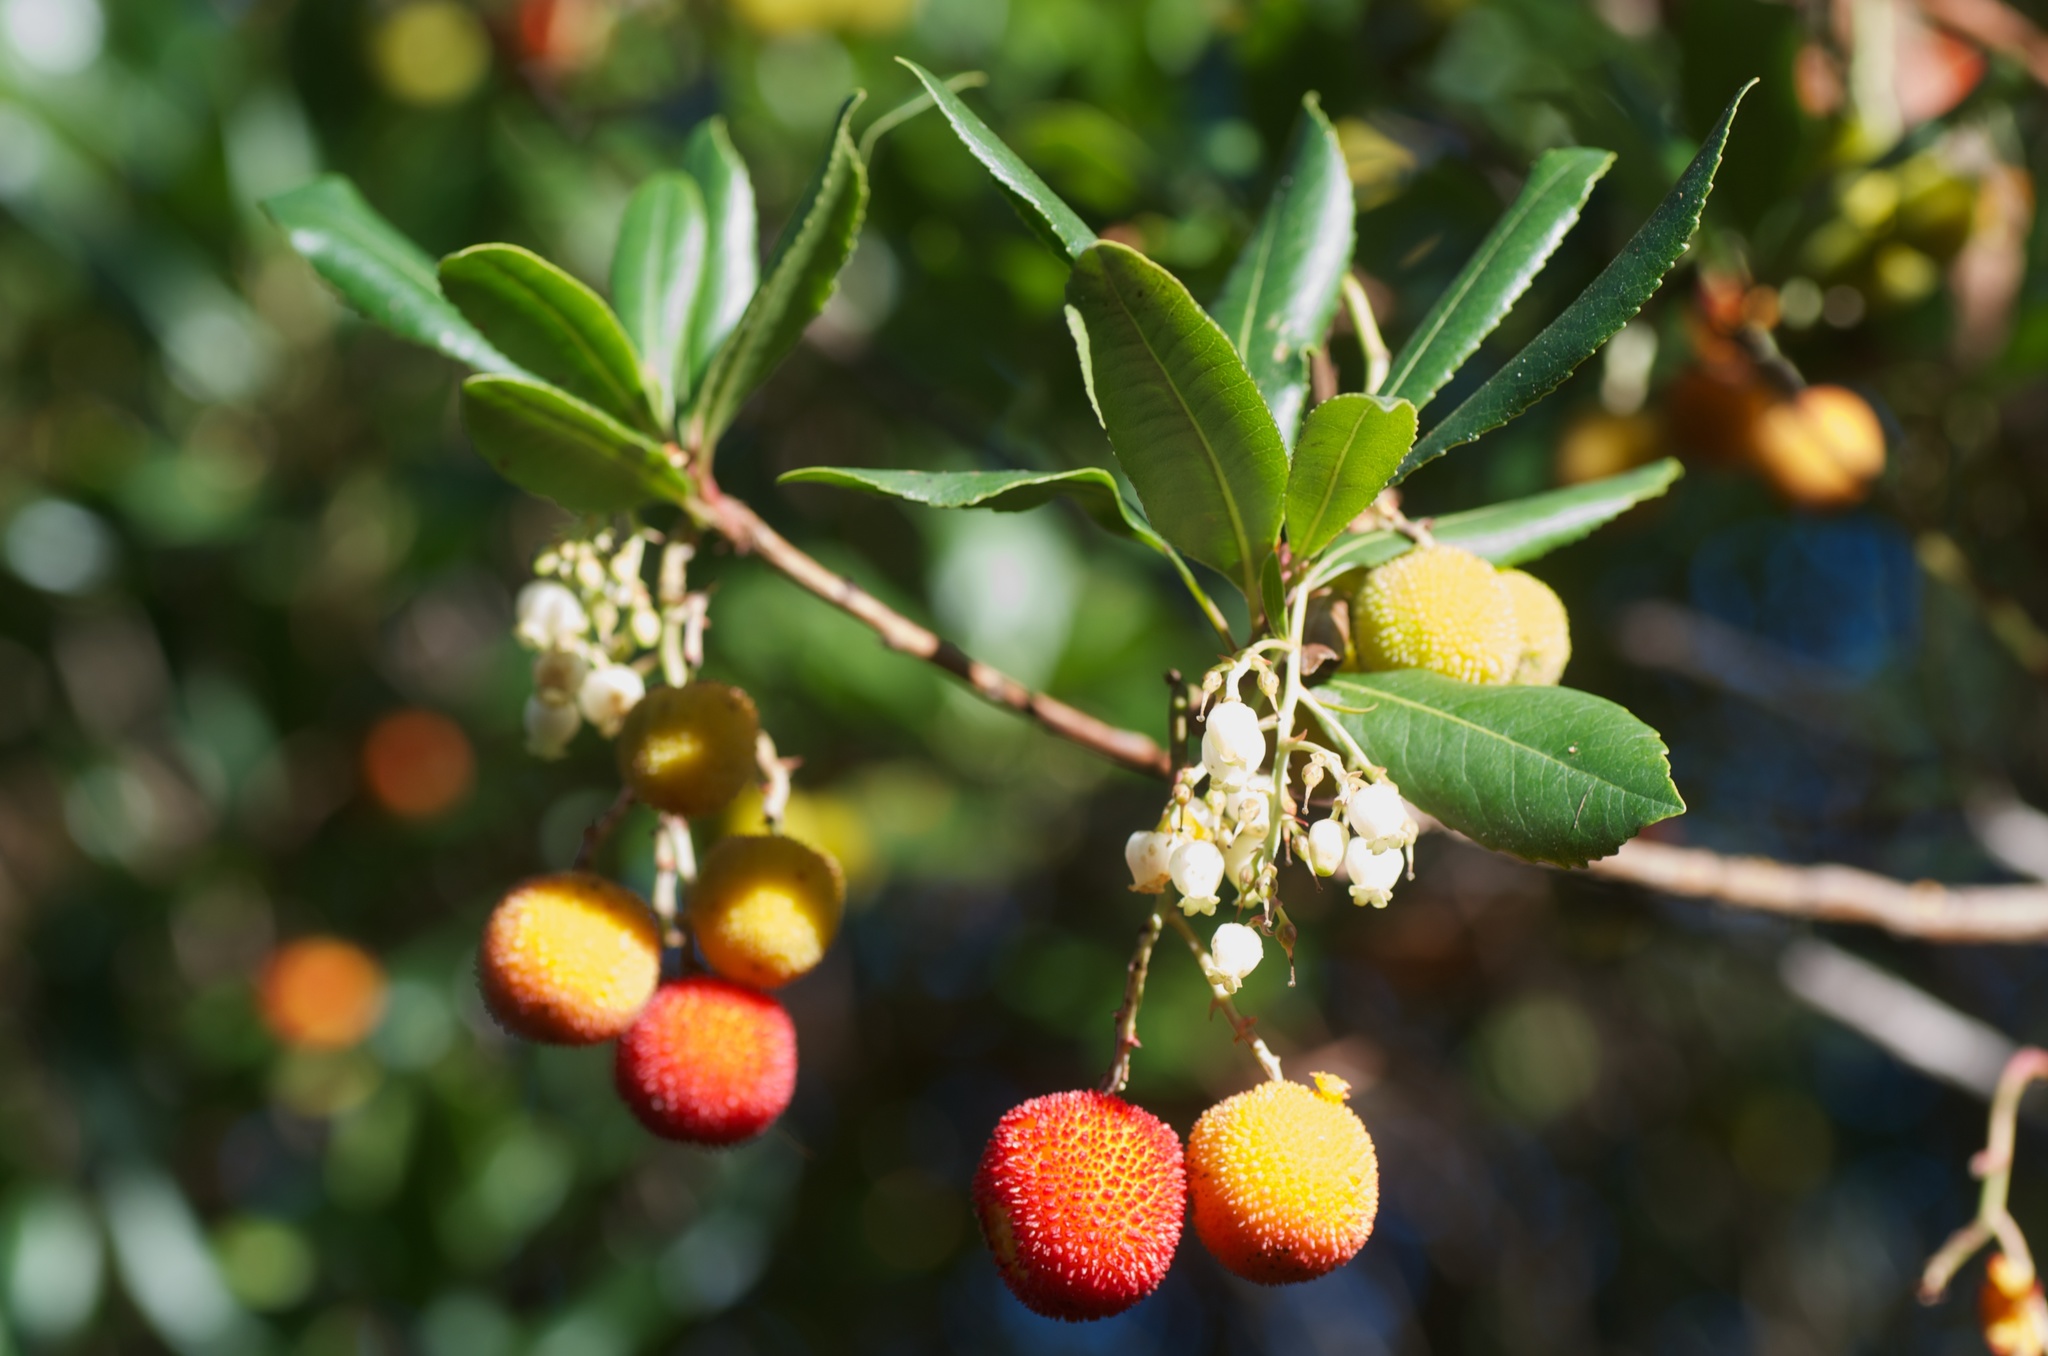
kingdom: Plantae
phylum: Tracheophyta
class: Magnoliopsida
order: Ericales
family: Ericaceae
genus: Arbutus
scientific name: Arbutus unedo
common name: Strawberry-tree
